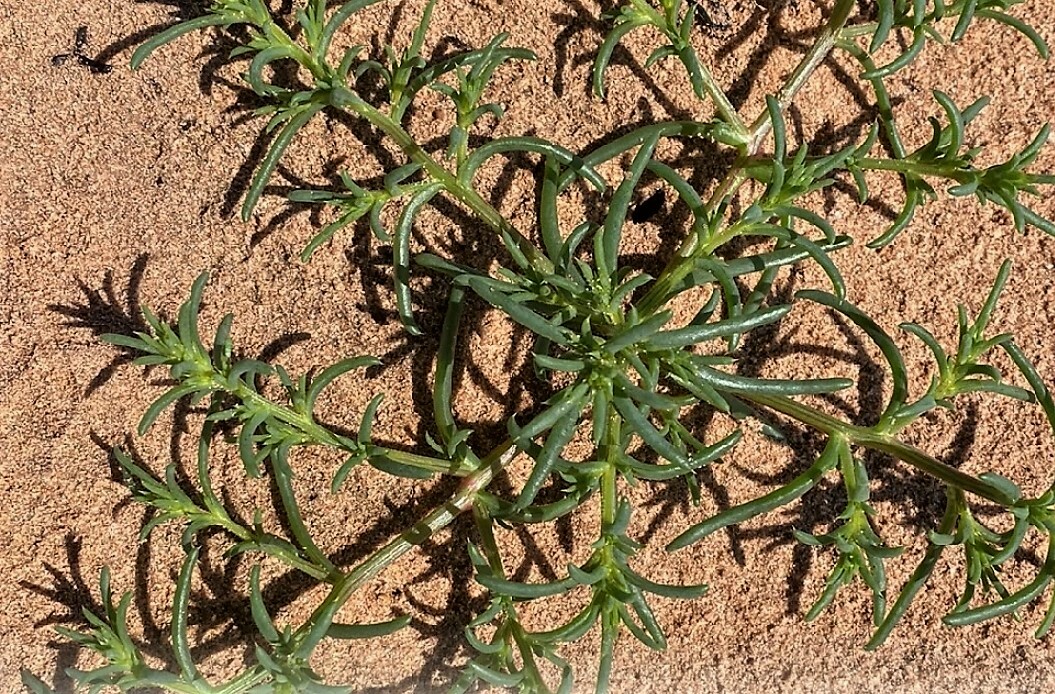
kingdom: Plantae
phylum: Tracheophyta
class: Magnoliopsida
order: Caryophyllales
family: Amaranthaceae
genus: Salsola
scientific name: Salsola kali
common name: Saltwort
